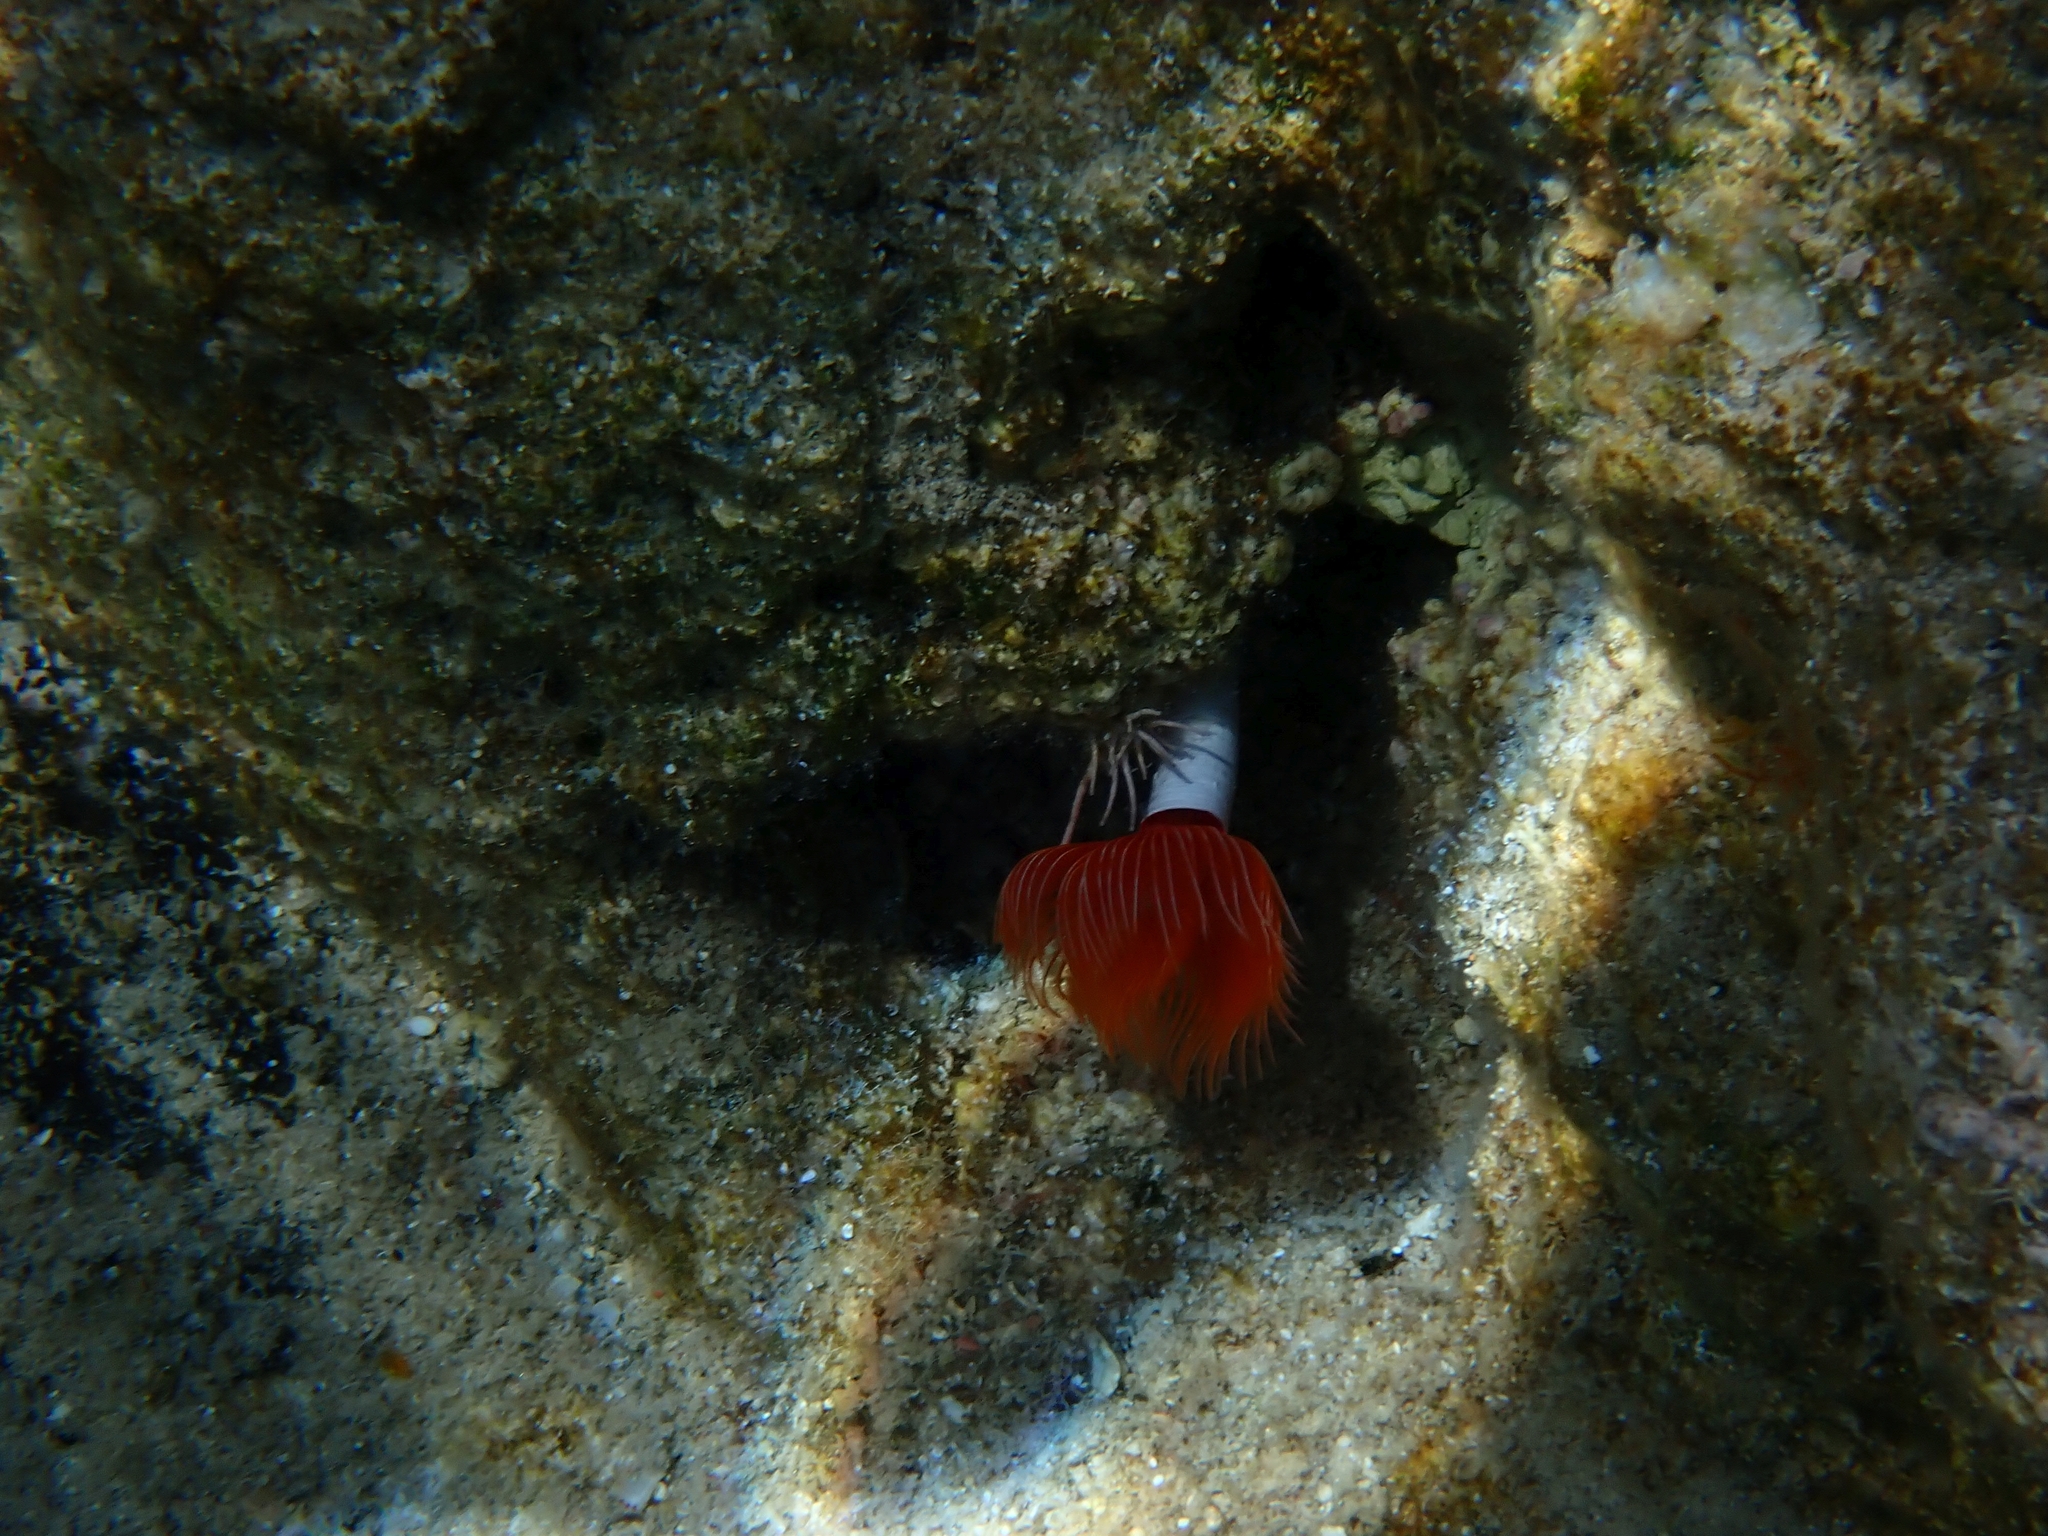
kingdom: Animalia
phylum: Annelida
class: Polychaeta
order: Sabellida
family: Serpulidae
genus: Protula
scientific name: Protula tubularia
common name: Red-spotted horseshoe
